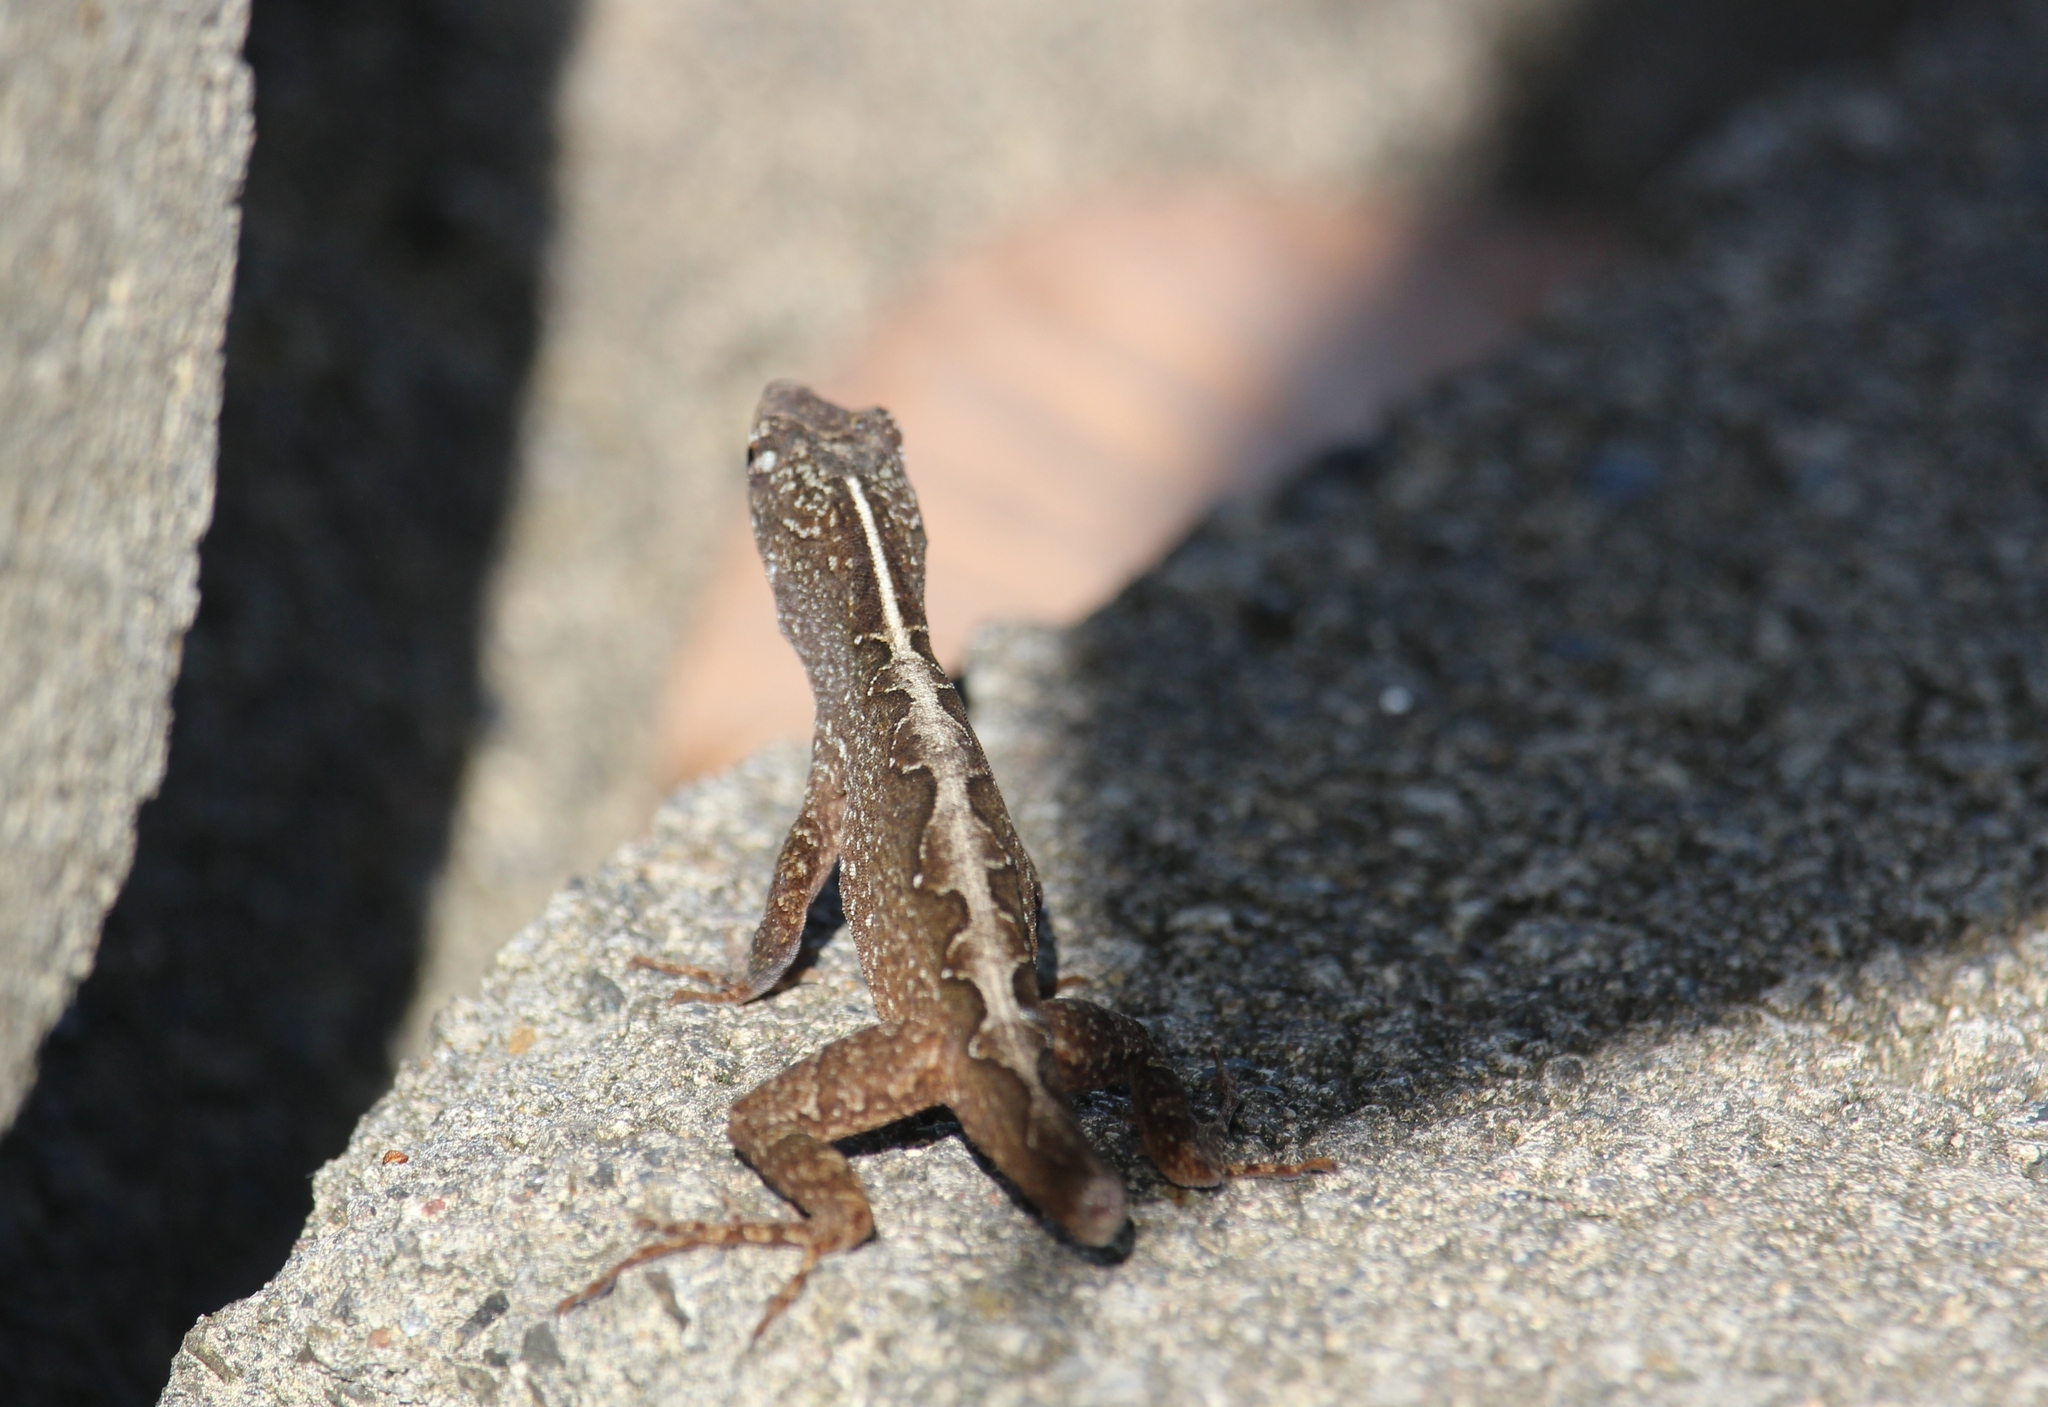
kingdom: Animalia
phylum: Chordata
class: Squamata
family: Dactyloidae
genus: Anolis
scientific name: Anolis sagrei
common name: Brown anole
